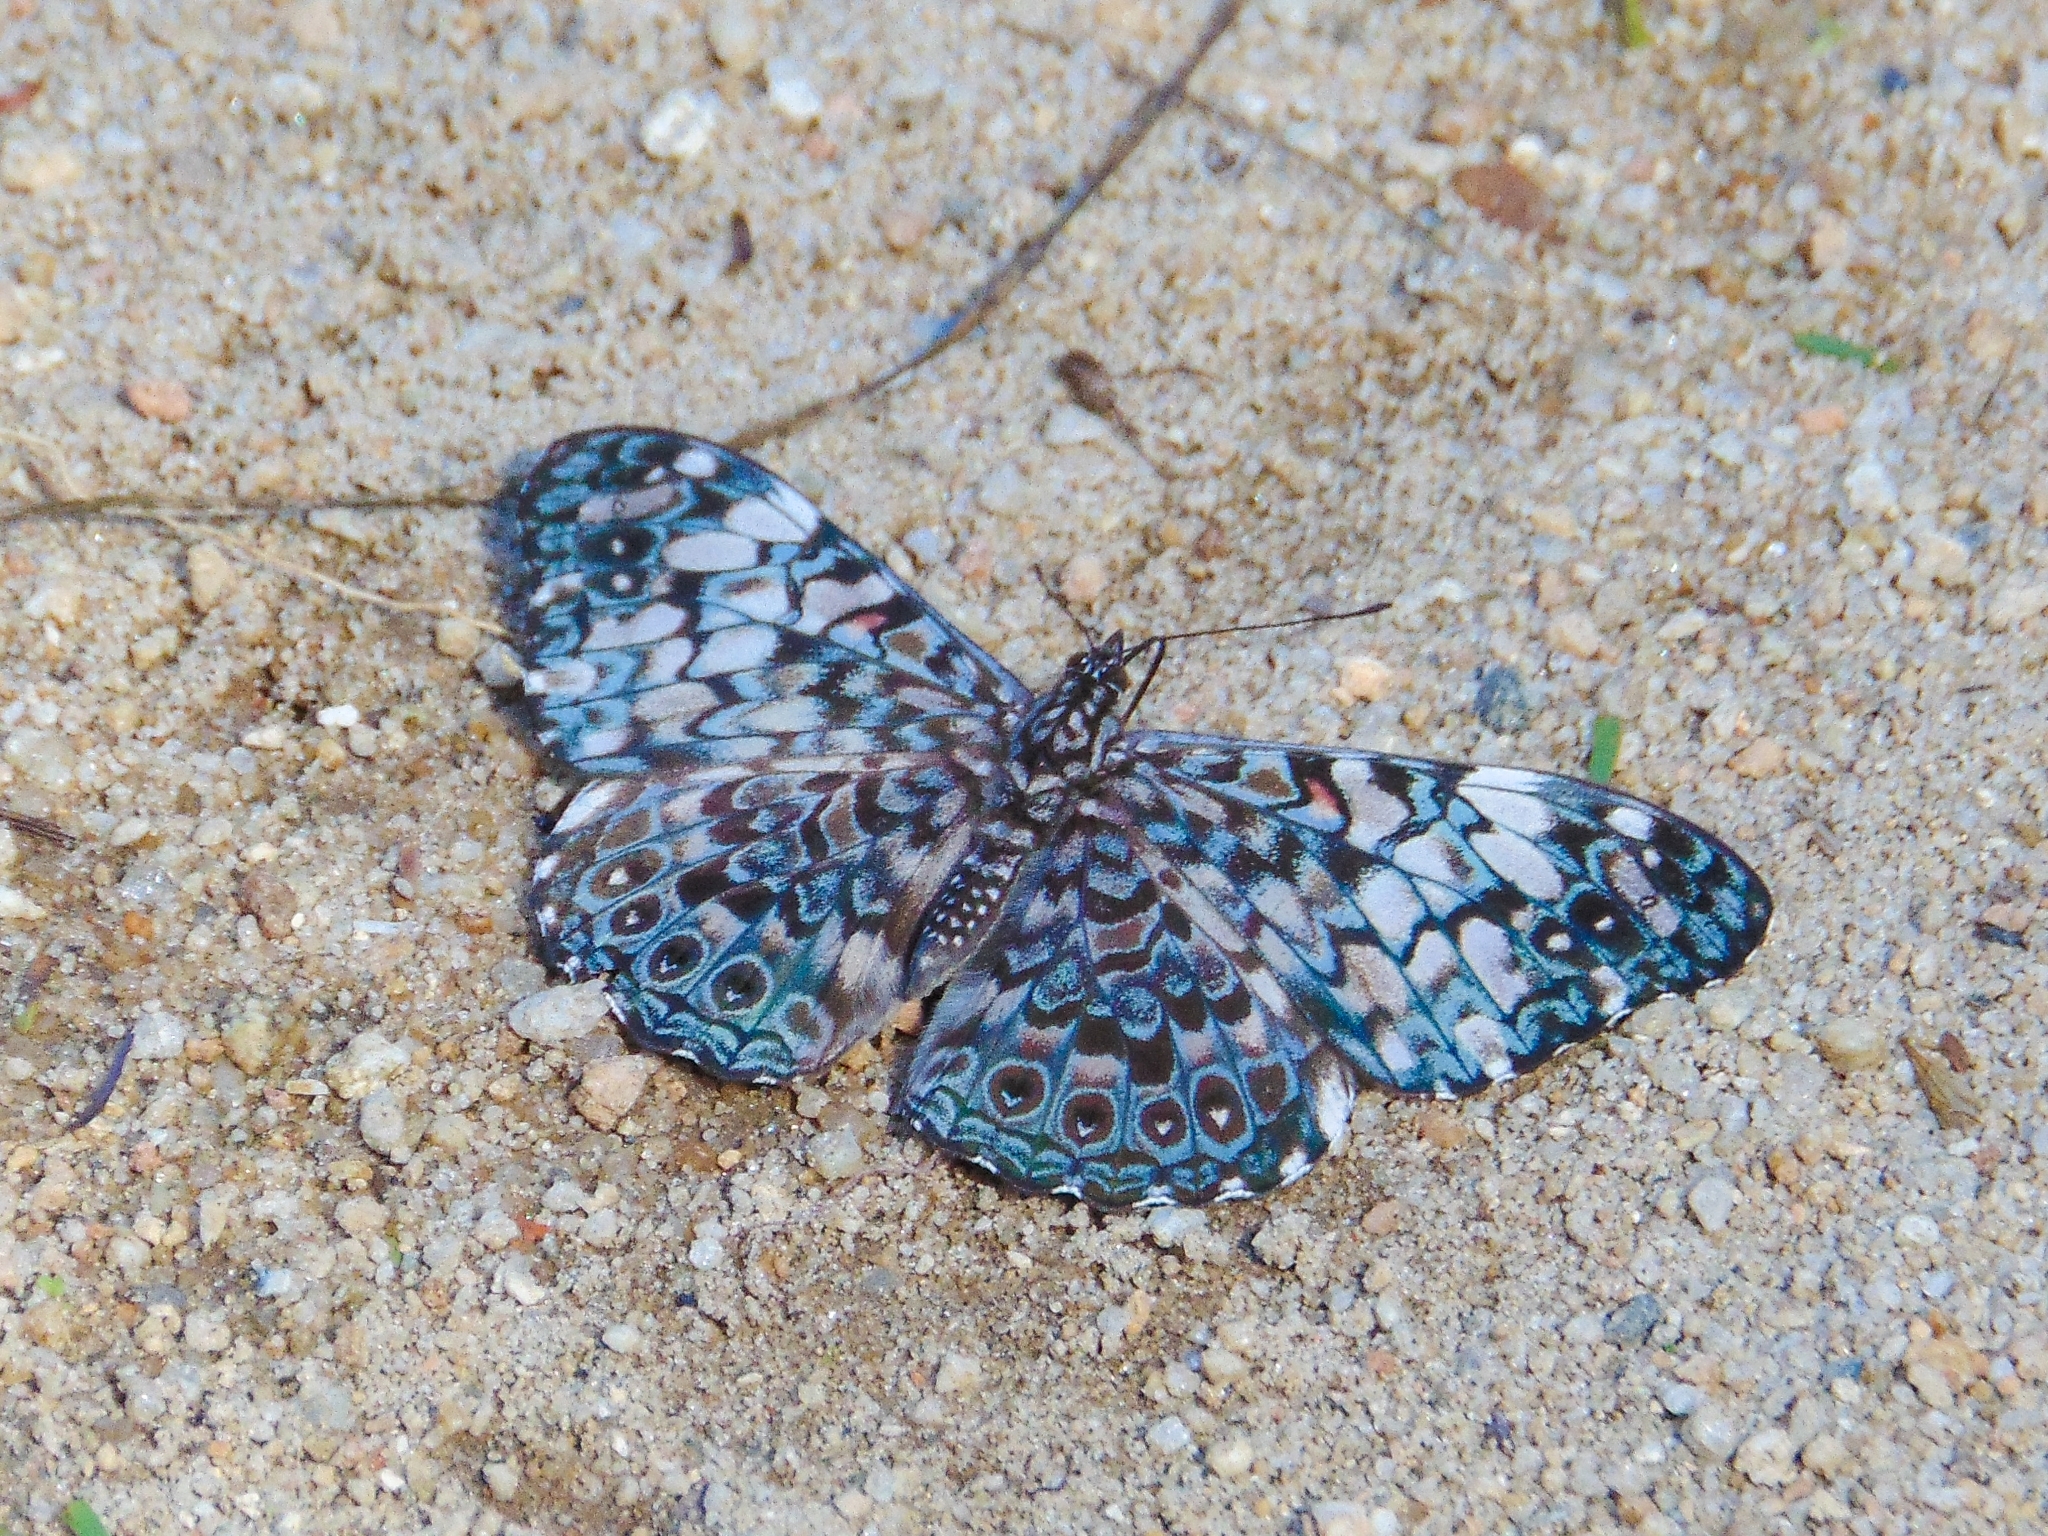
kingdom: Animalia
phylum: Arthropoda
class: Insecta
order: Lepidoptera
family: Nymphalidae
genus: Hamadryas
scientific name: Hamadryas fornax
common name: Orange cracker
